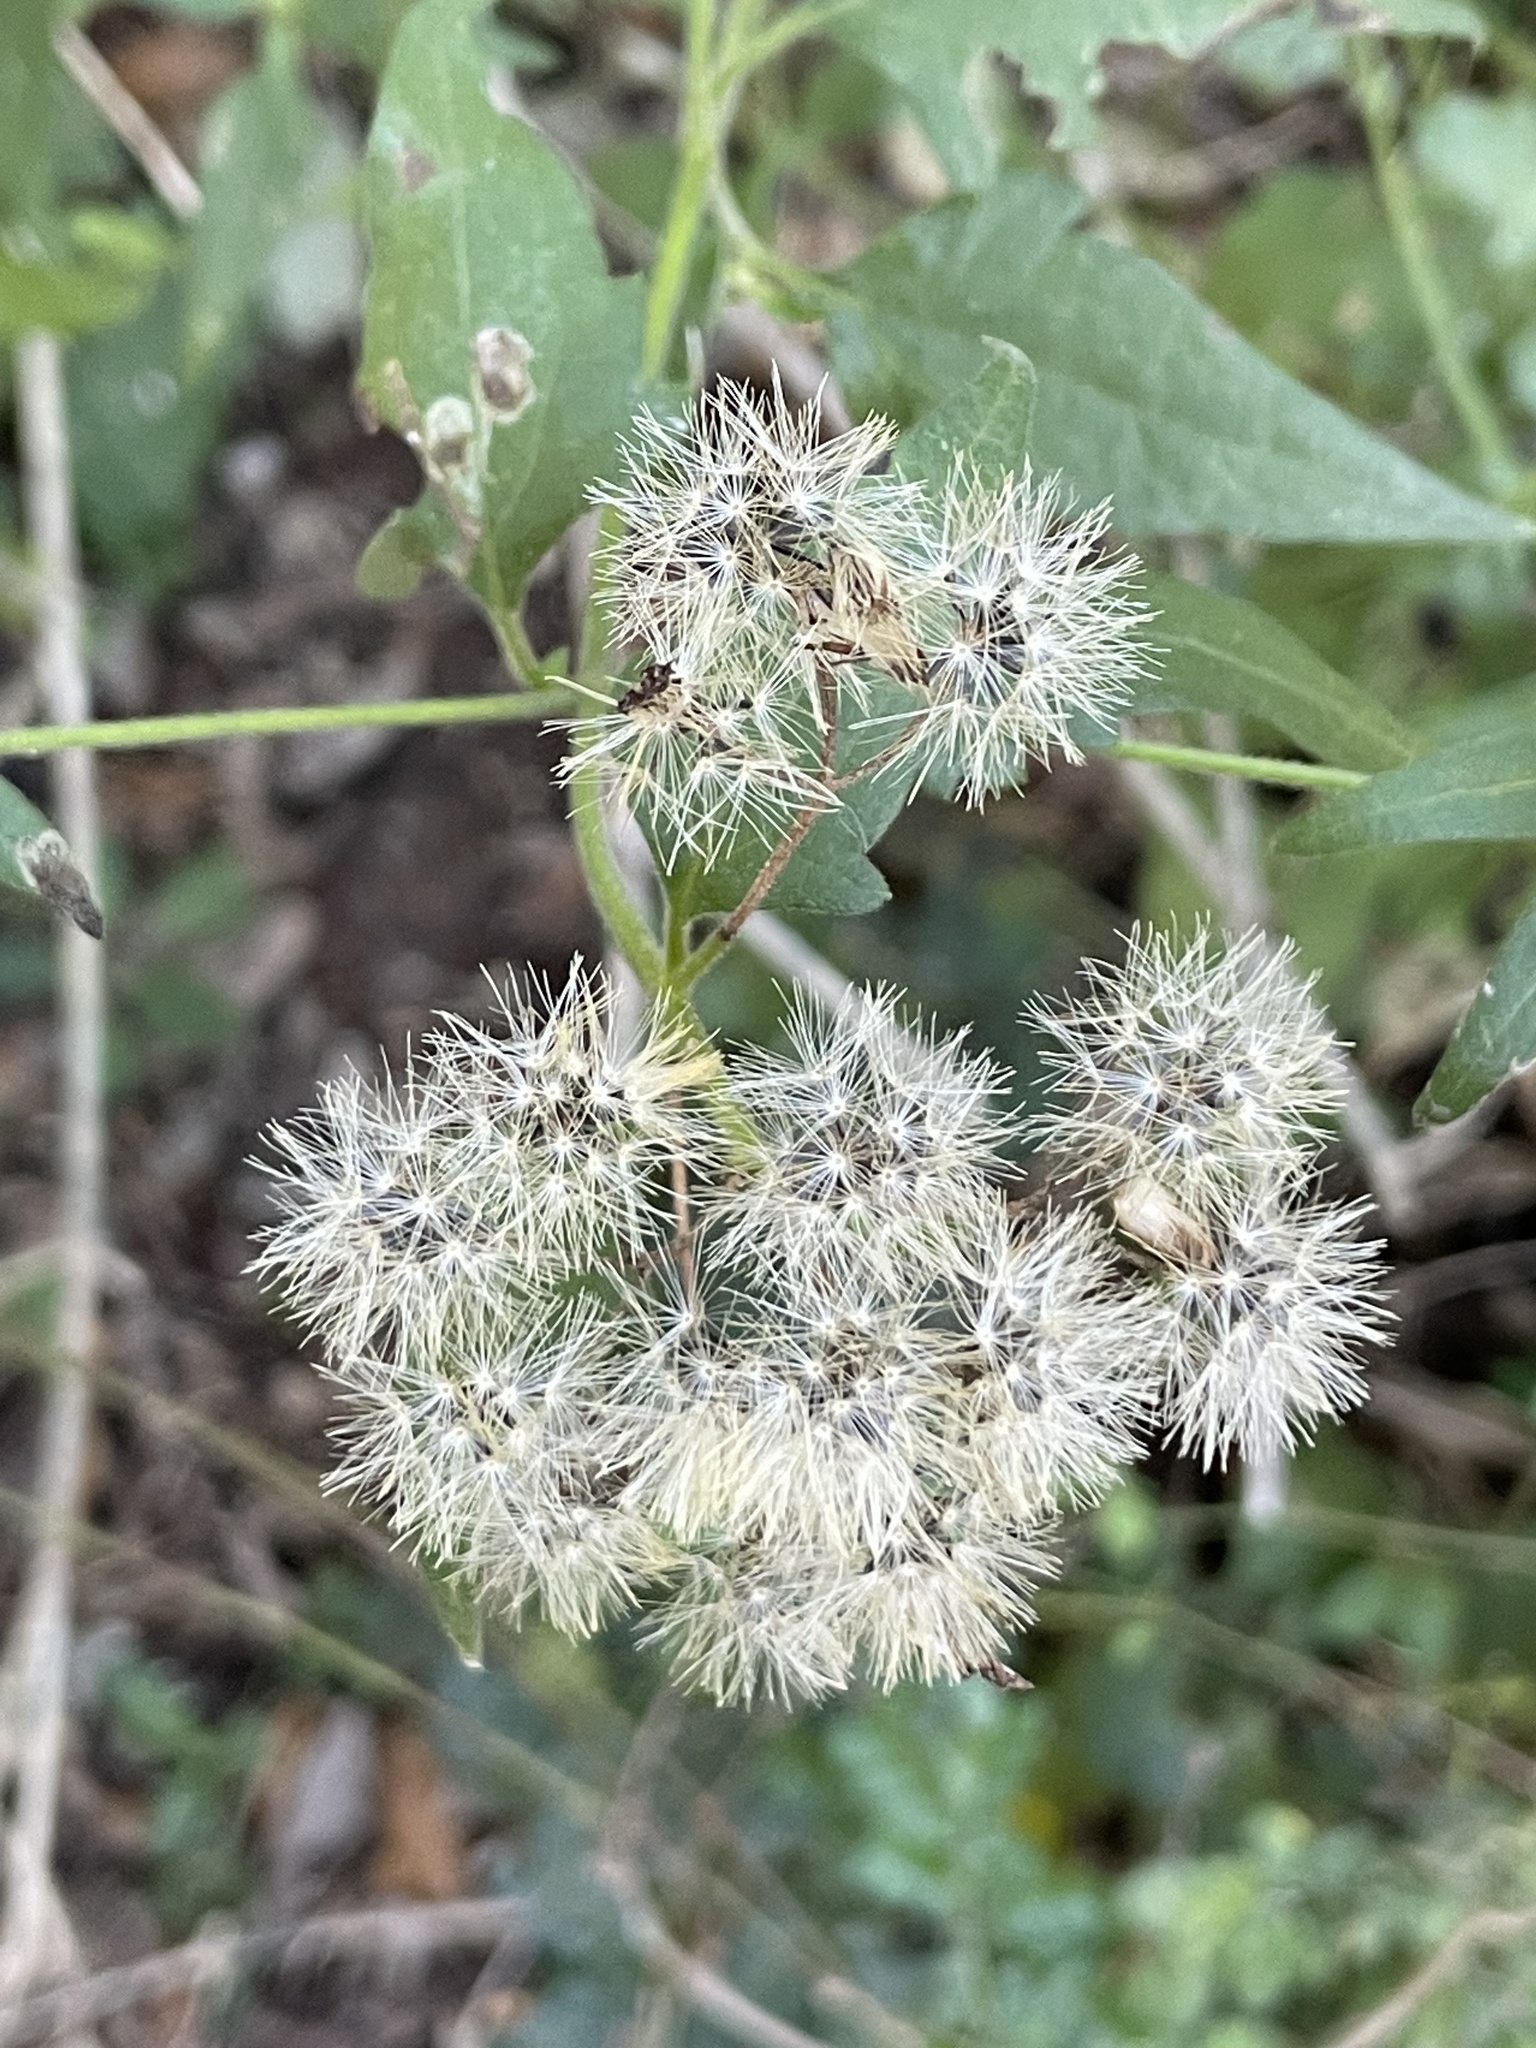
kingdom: Plantae
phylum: Tracheophyta
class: Magnoliopsida
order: Asterales
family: Asteraceae
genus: Chromolaena
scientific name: Chromolaena odorata
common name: Siamweed
